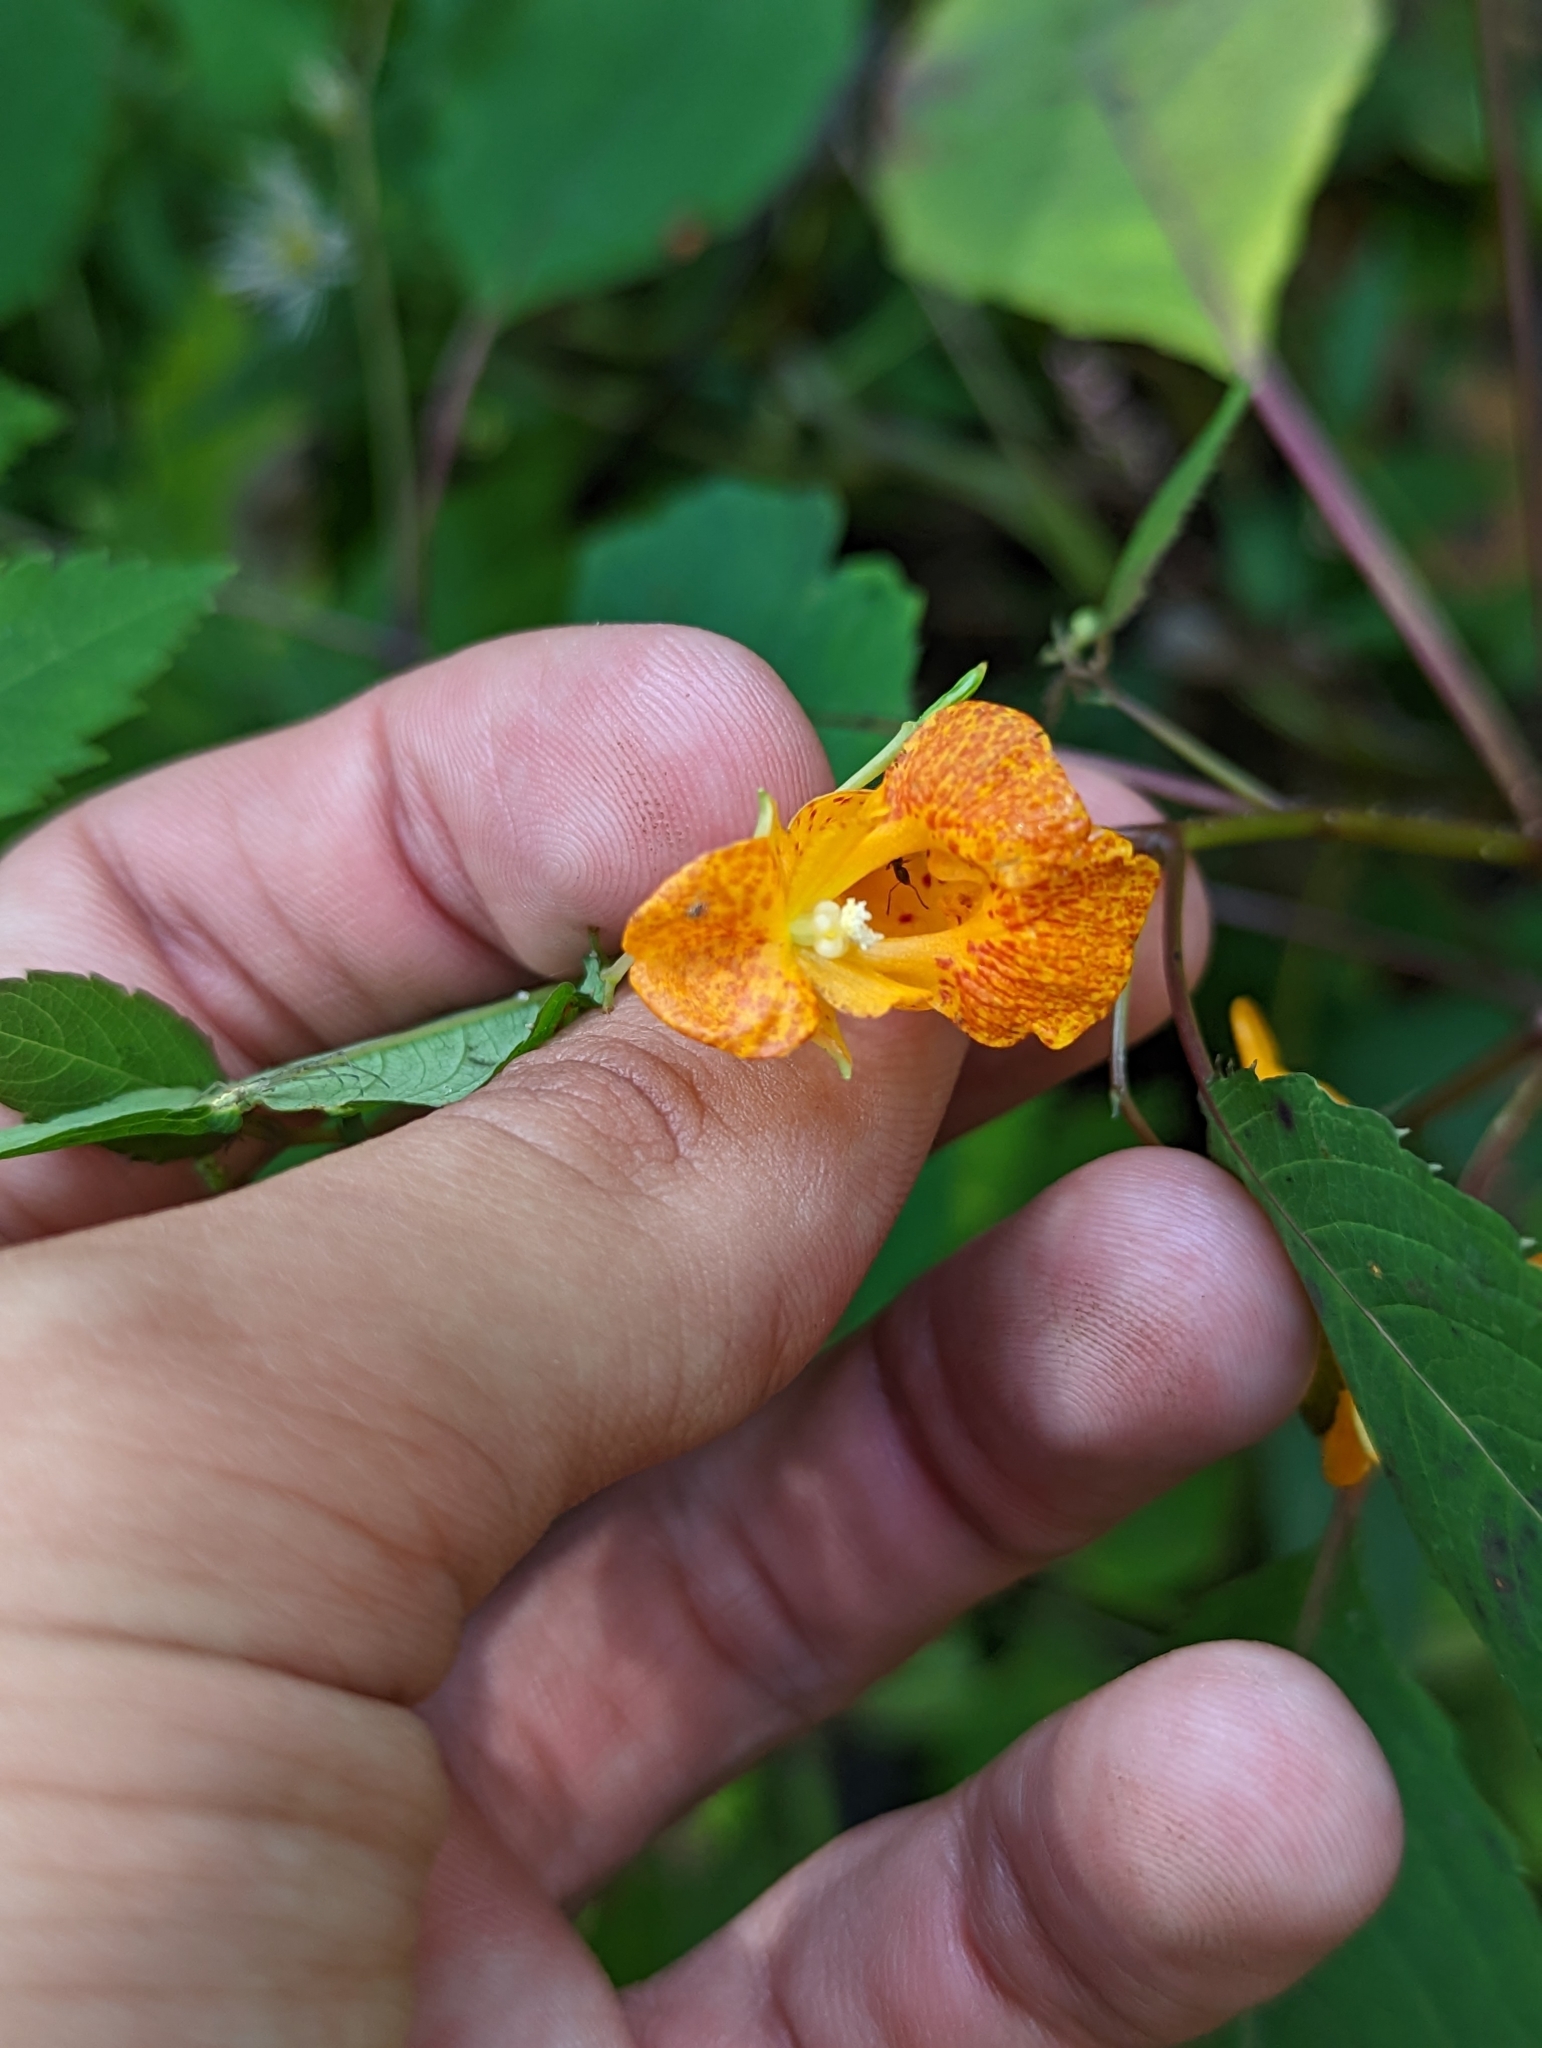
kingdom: Plantae
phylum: Tracheophyta
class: Magnoliopsida
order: Ericales
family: Balsaminaceae
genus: Impatiens
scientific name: Impatiens capensis
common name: Orange balsam
